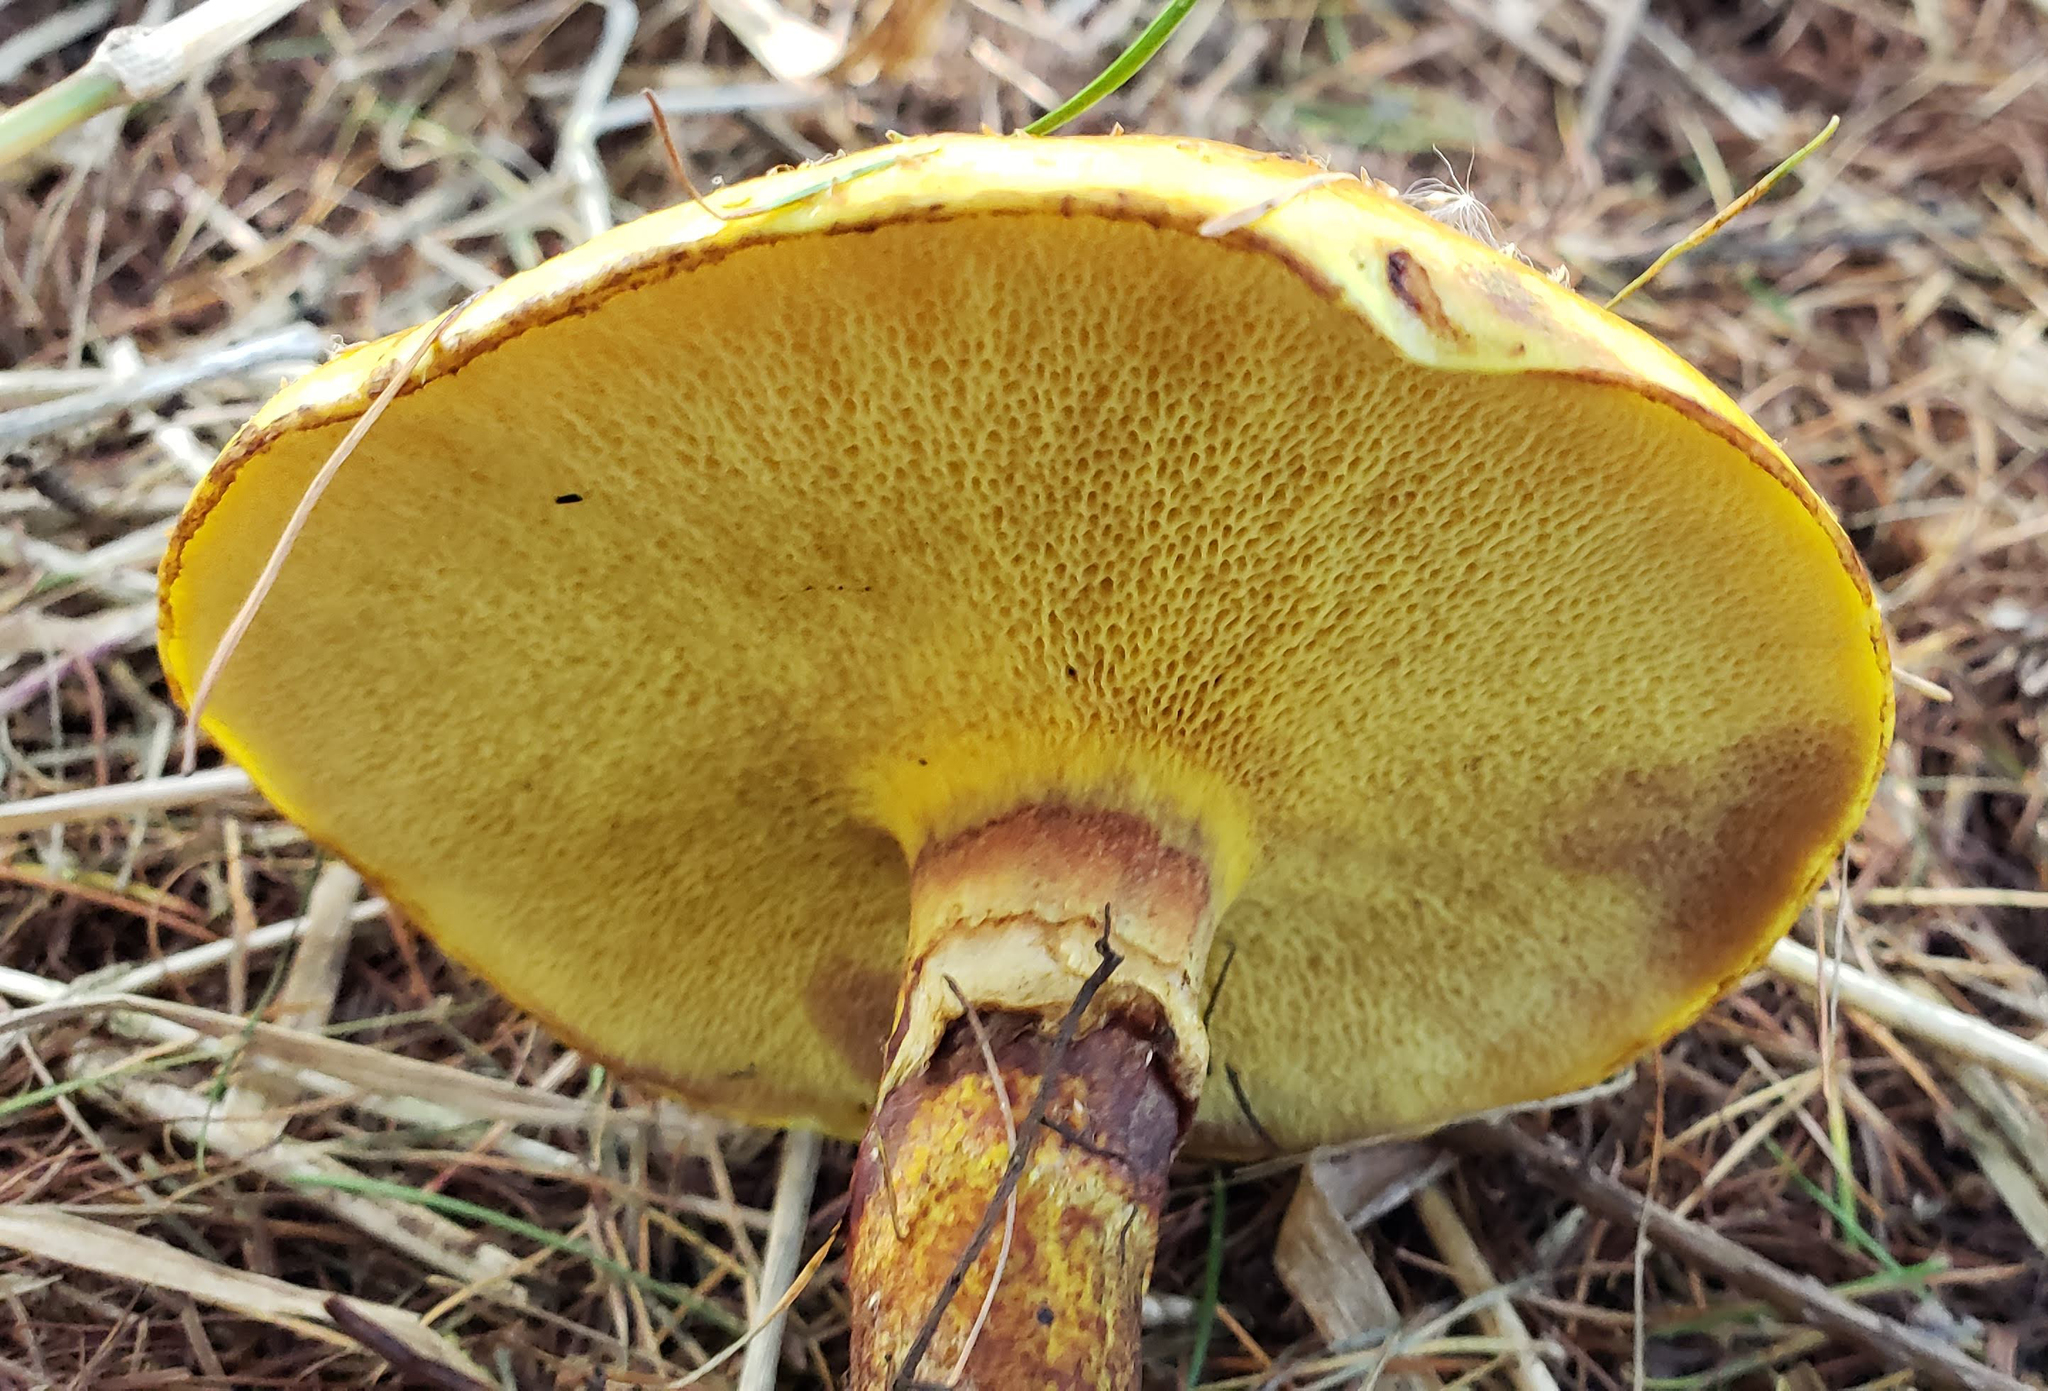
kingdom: Fungi
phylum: Basidiomycota
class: Agaricomycetes
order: Boletales
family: Suillaceae
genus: Suillus
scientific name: Suillus grevillei
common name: Larch bolete
